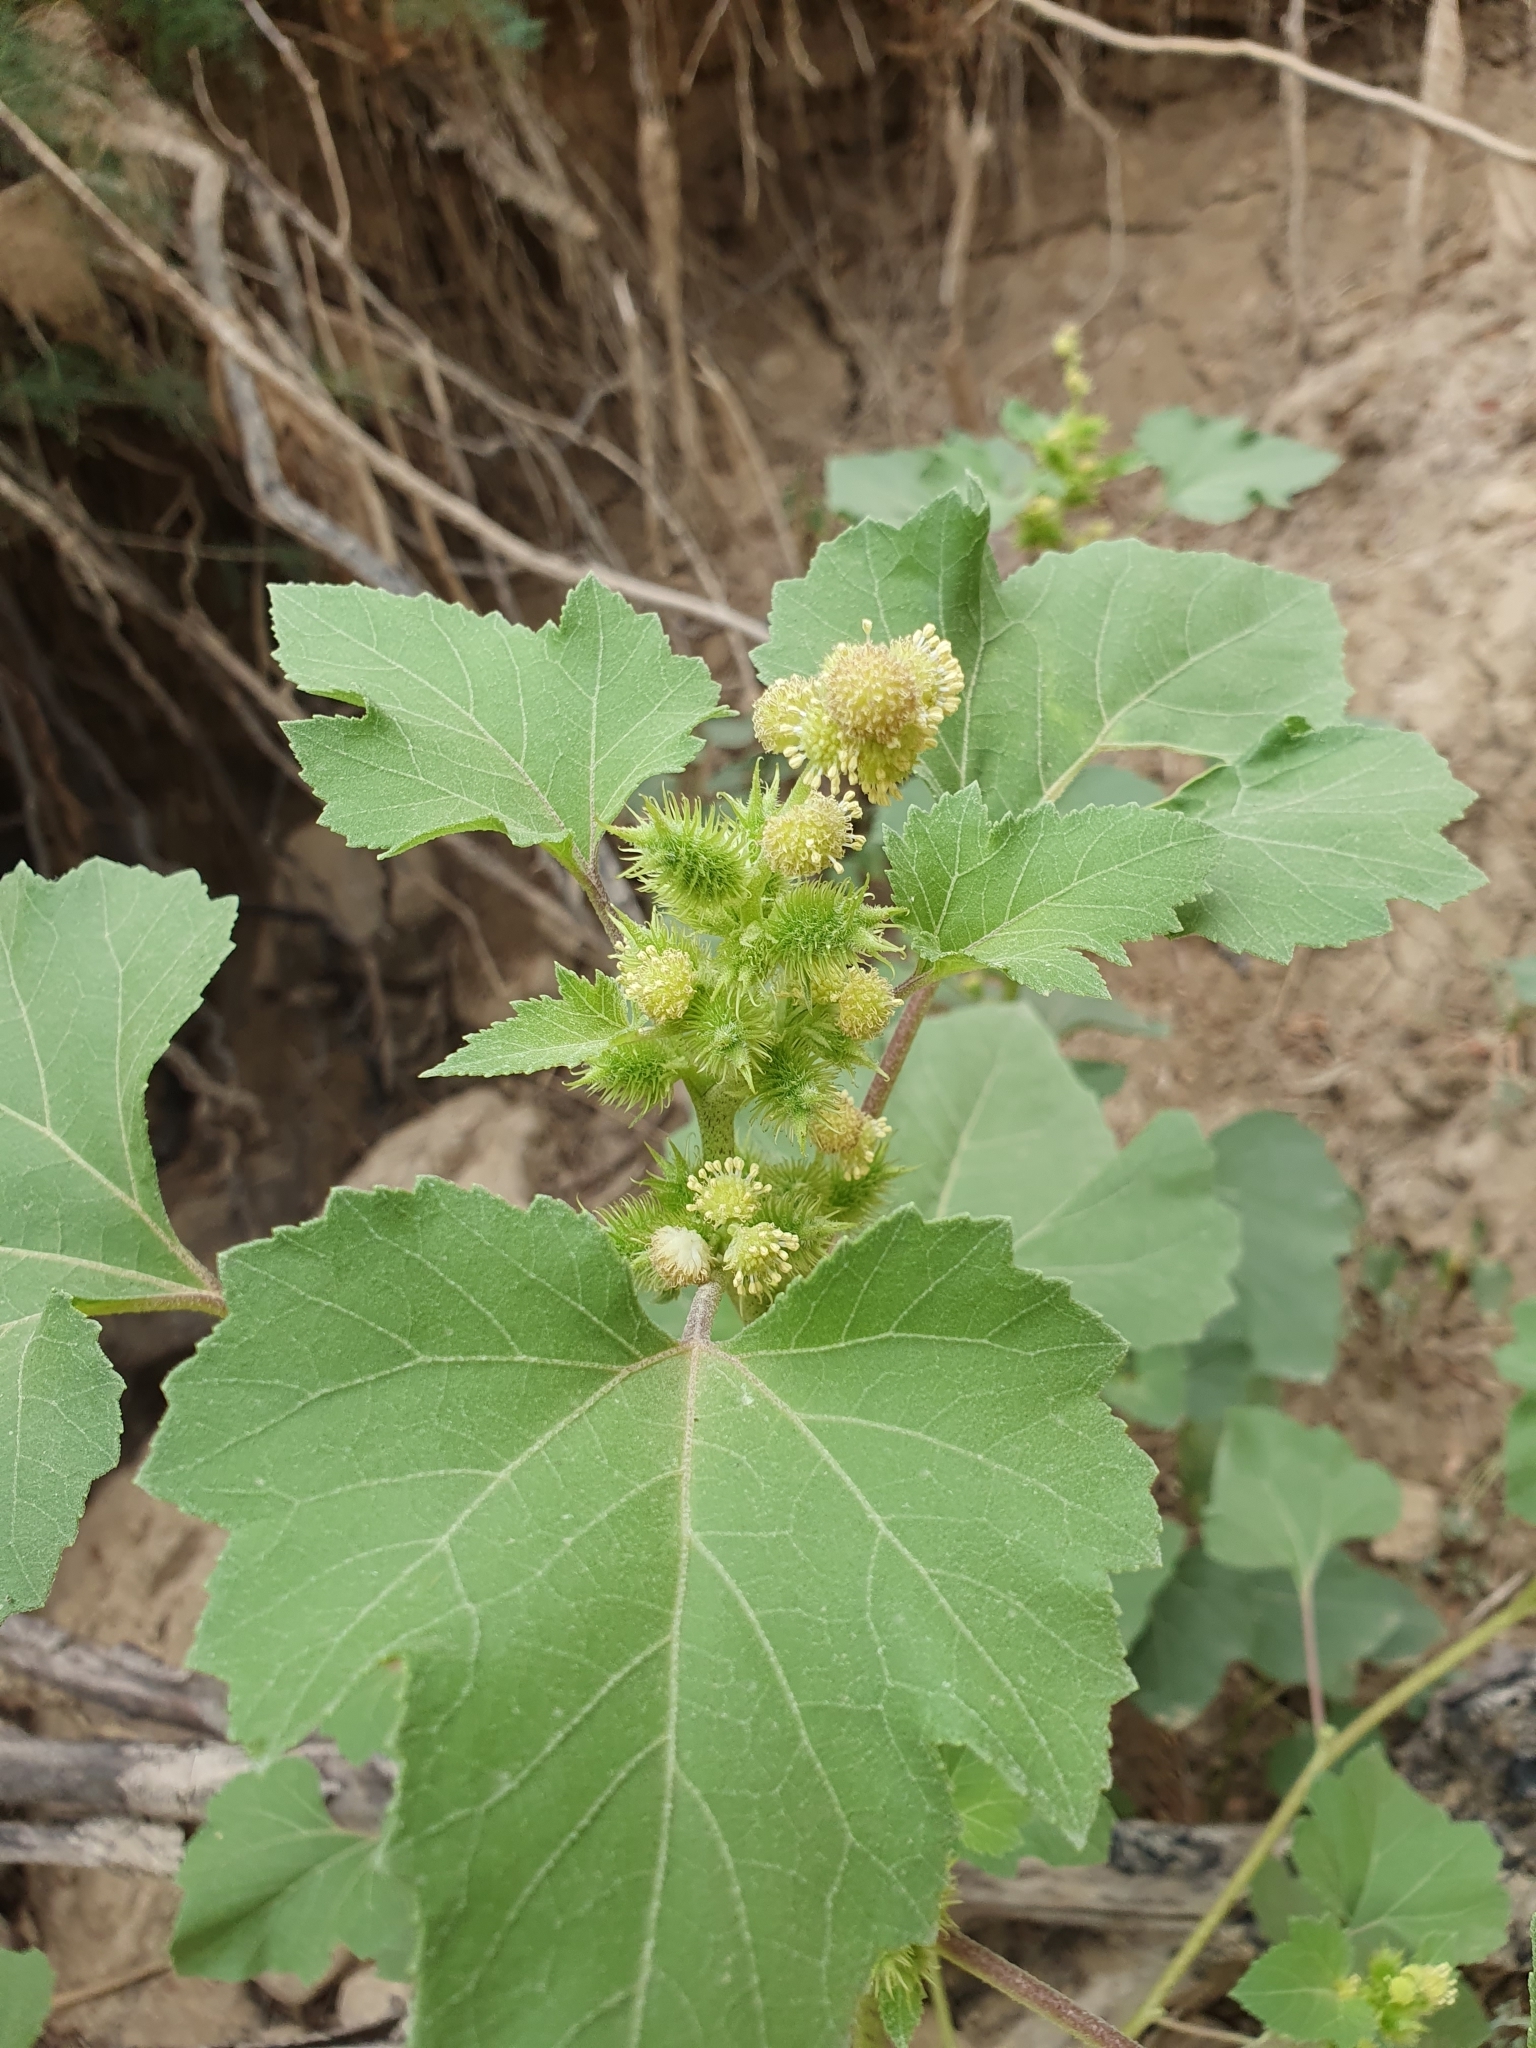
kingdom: Plantae
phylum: Tracheophyta
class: Magnoliopsida
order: Asterales
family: Asteraceae
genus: Xanthium
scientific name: Xanthium strumarium
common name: Rough cocklebur
